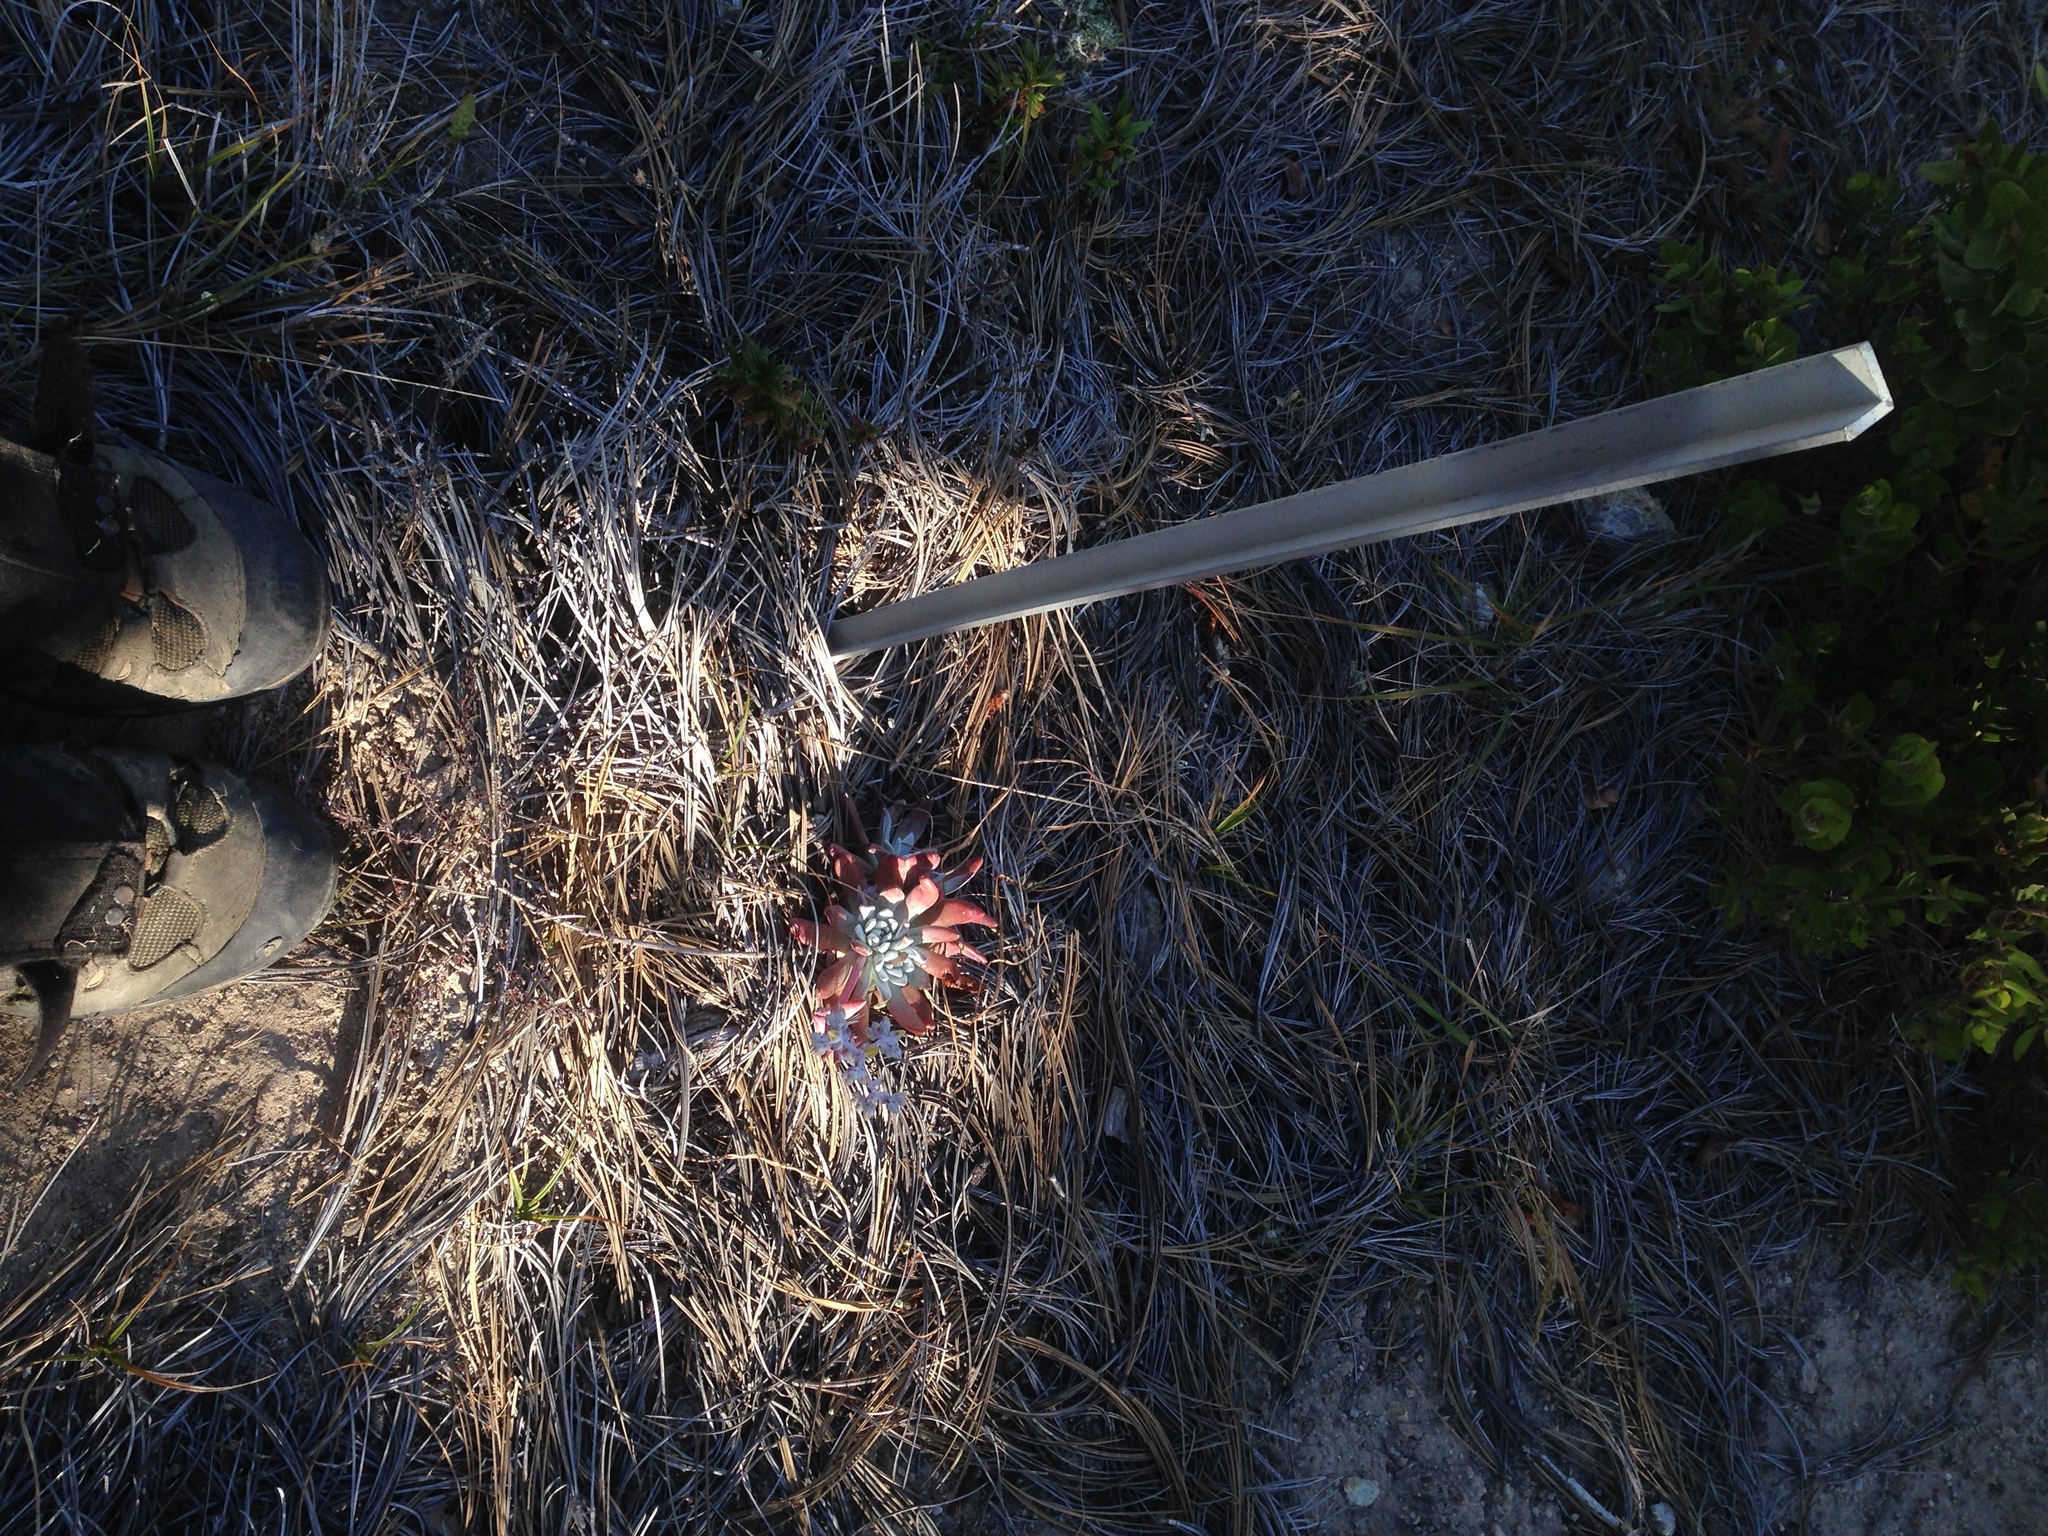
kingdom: Plantae
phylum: Tracheophyta
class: Magnoliopsida
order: Saxifragales
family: Crassulaceae
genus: Dudleya
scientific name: Dudleya greenei
